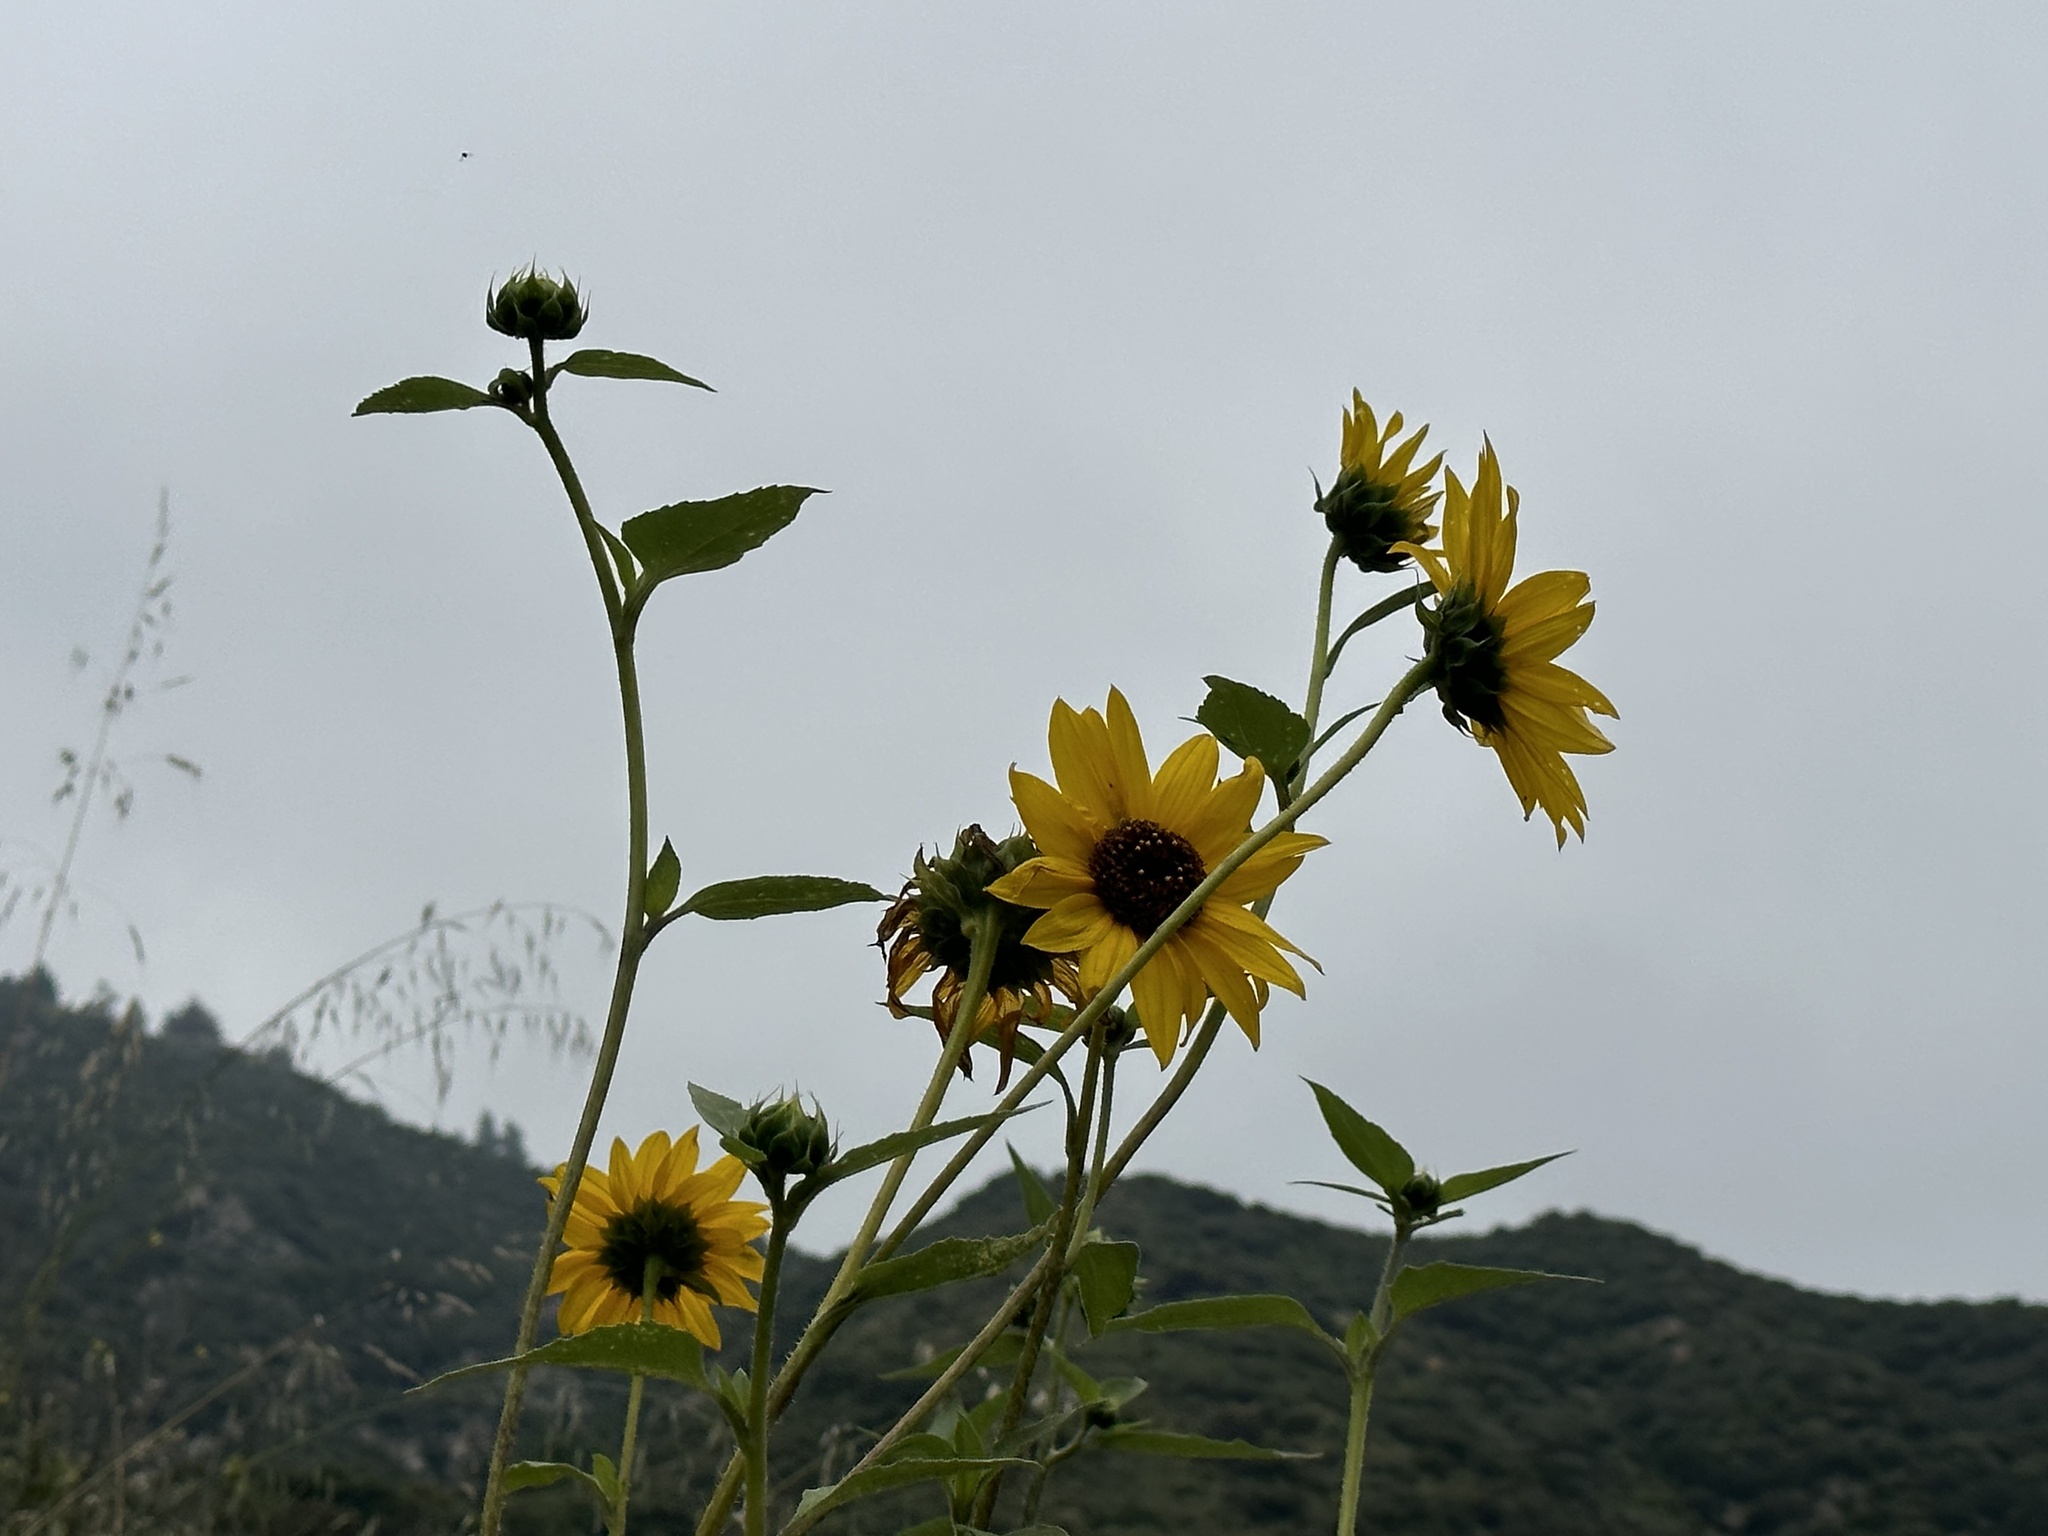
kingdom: Plantae
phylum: Tracheophyta
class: Magnoliopsida
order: Asterales
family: Asteraceae
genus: Helianthus
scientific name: Helianthus gracilentus
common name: Slender sunflower
